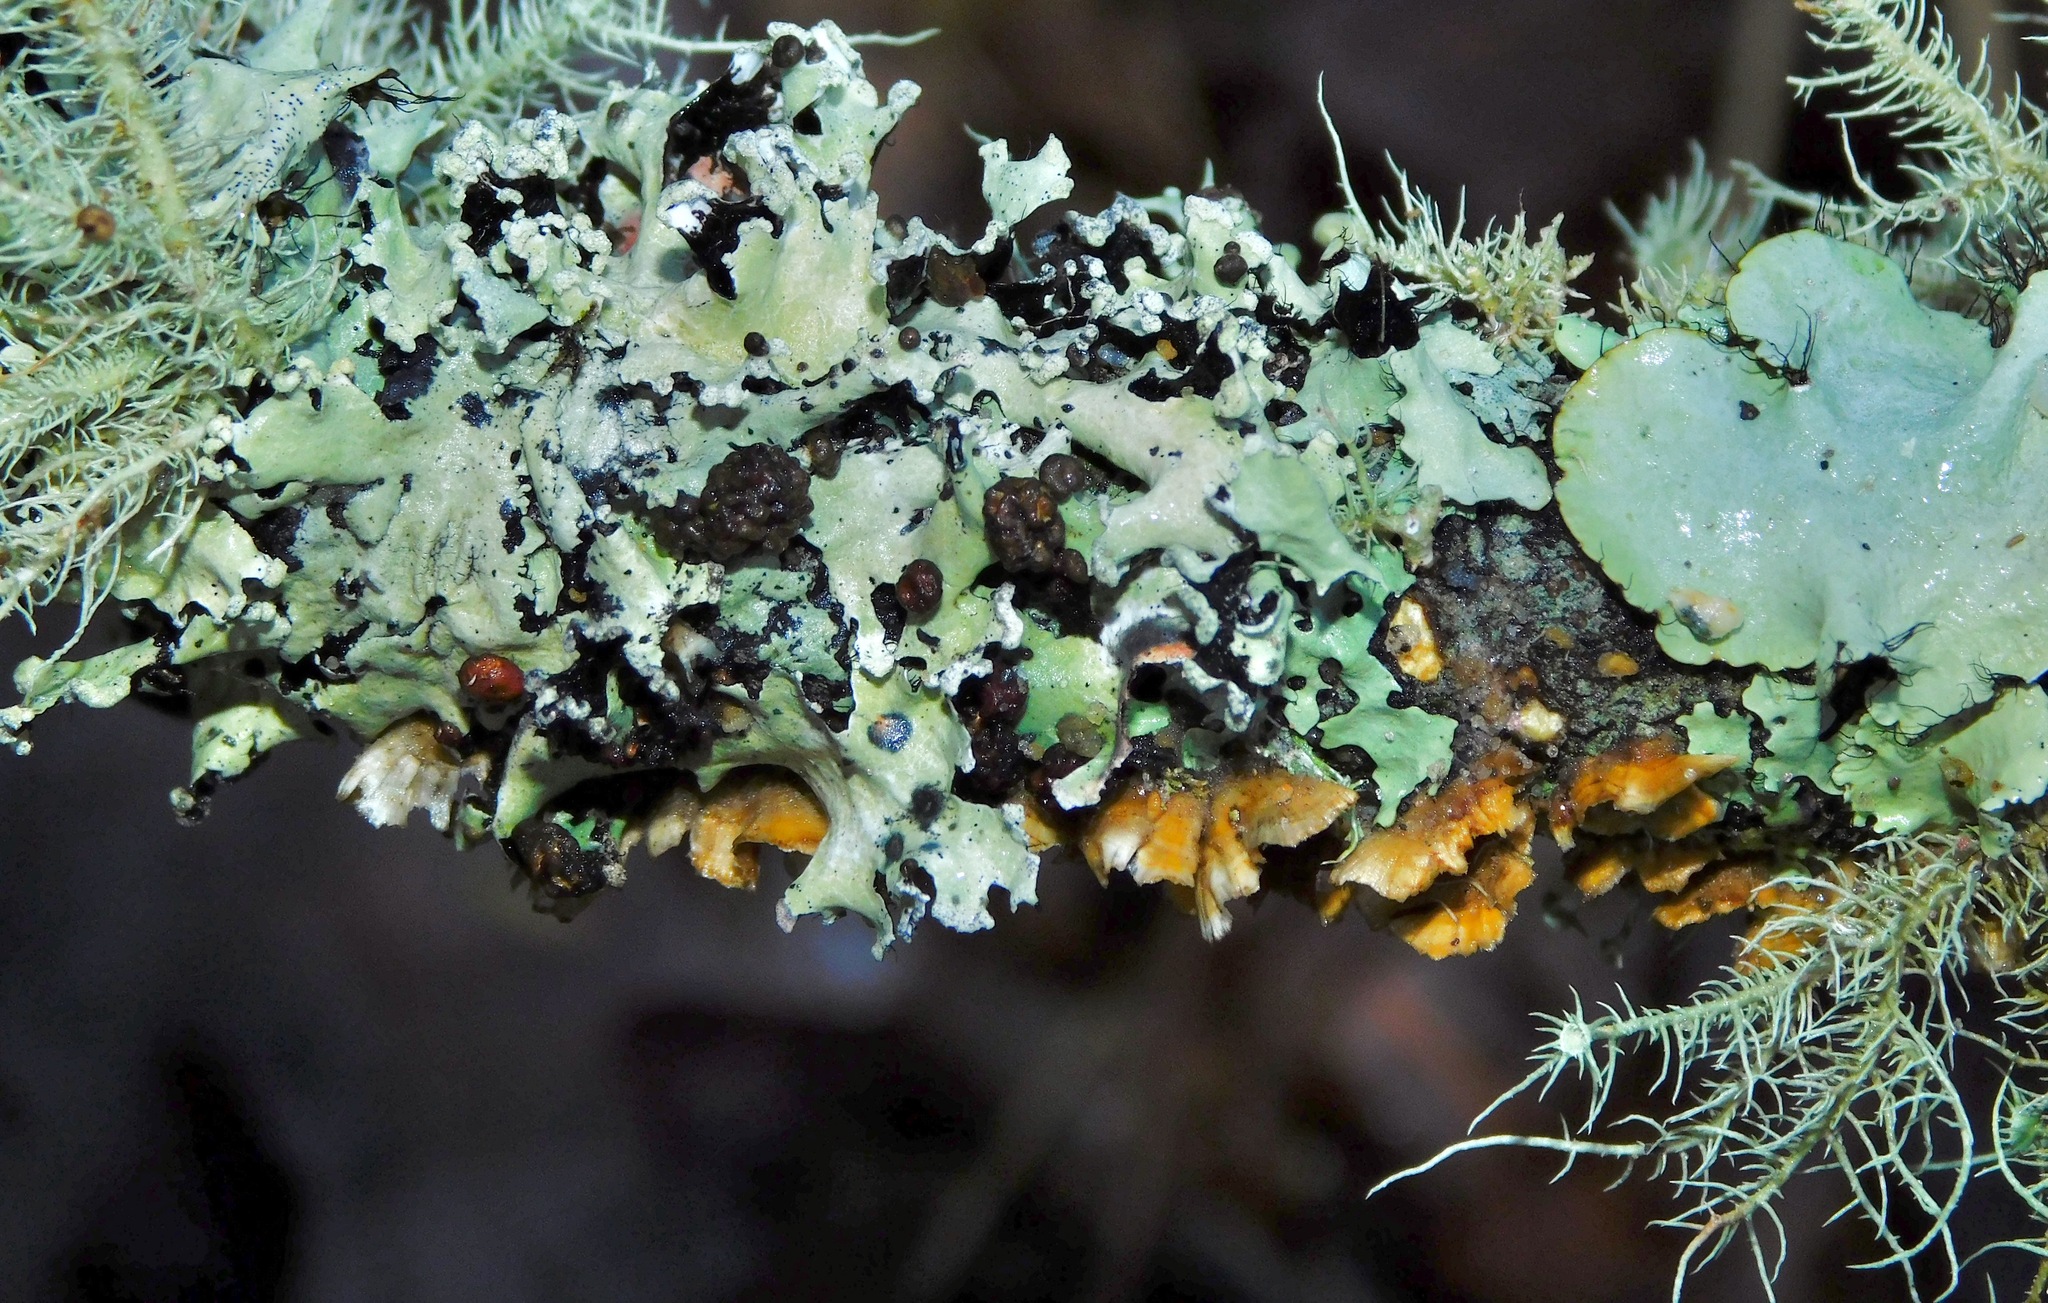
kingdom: Fungi
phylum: Basidiomycota
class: Tremellomycetes
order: Tremellales
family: Tremellaceae
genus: Tremella
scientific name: Tremella parmeliarum
